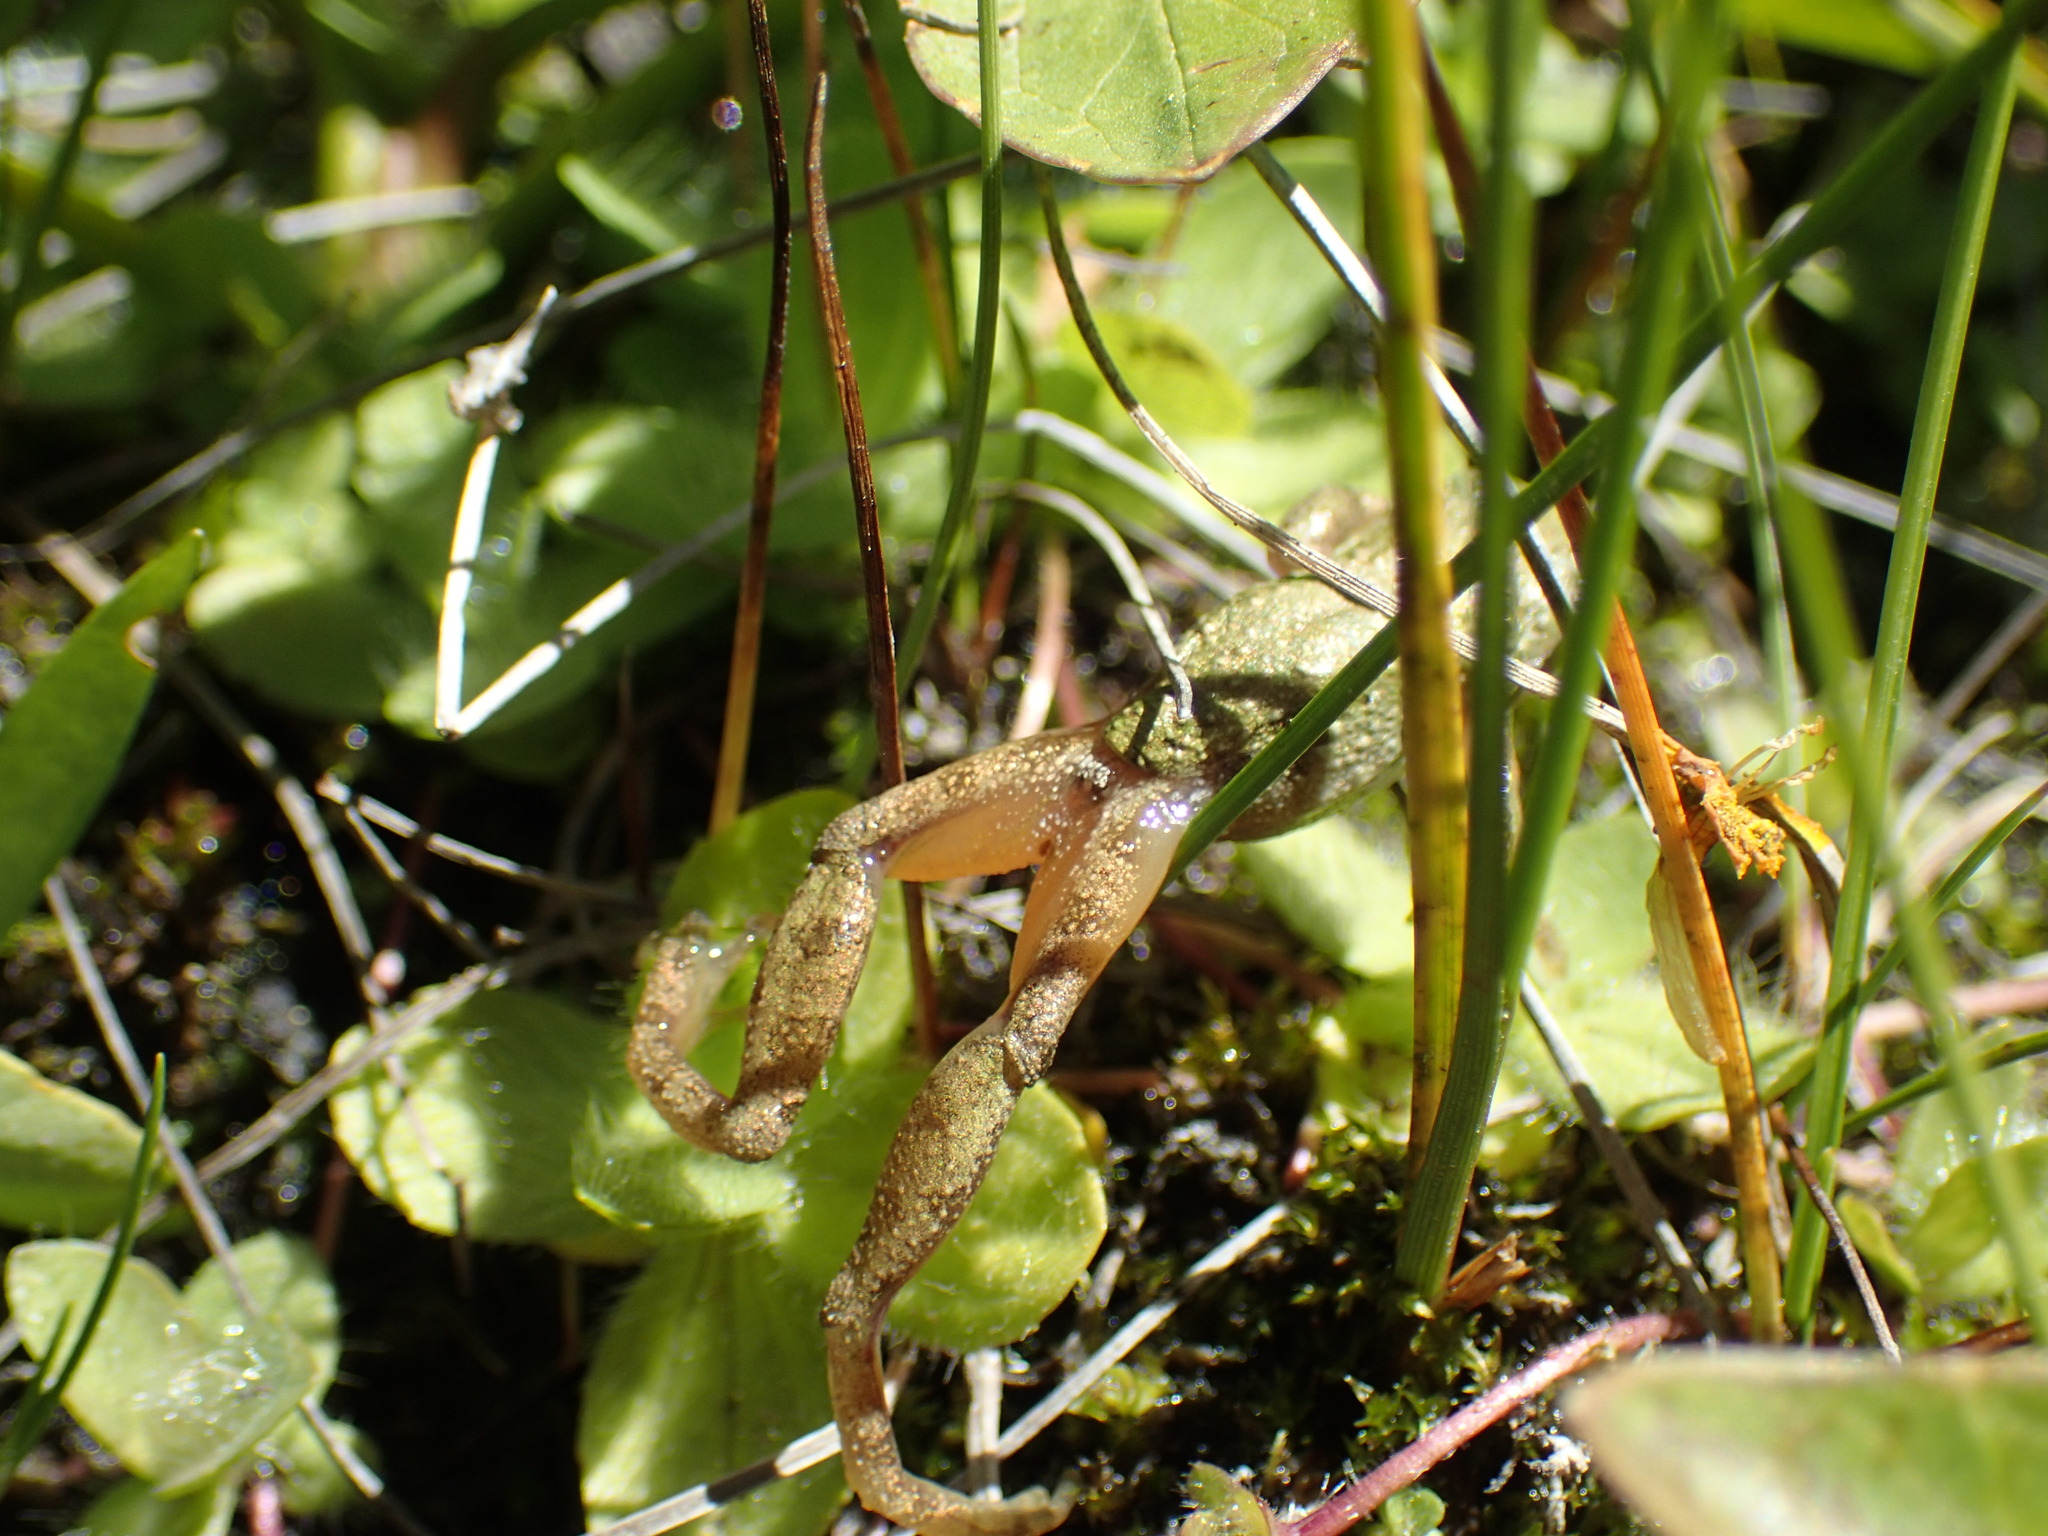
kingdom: Animalia
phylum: Chordata
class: Amphibia
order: Anura
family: Hylidae
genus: Pseudacris
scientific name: Pseudacris regilla
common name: Pacific chorus frog
